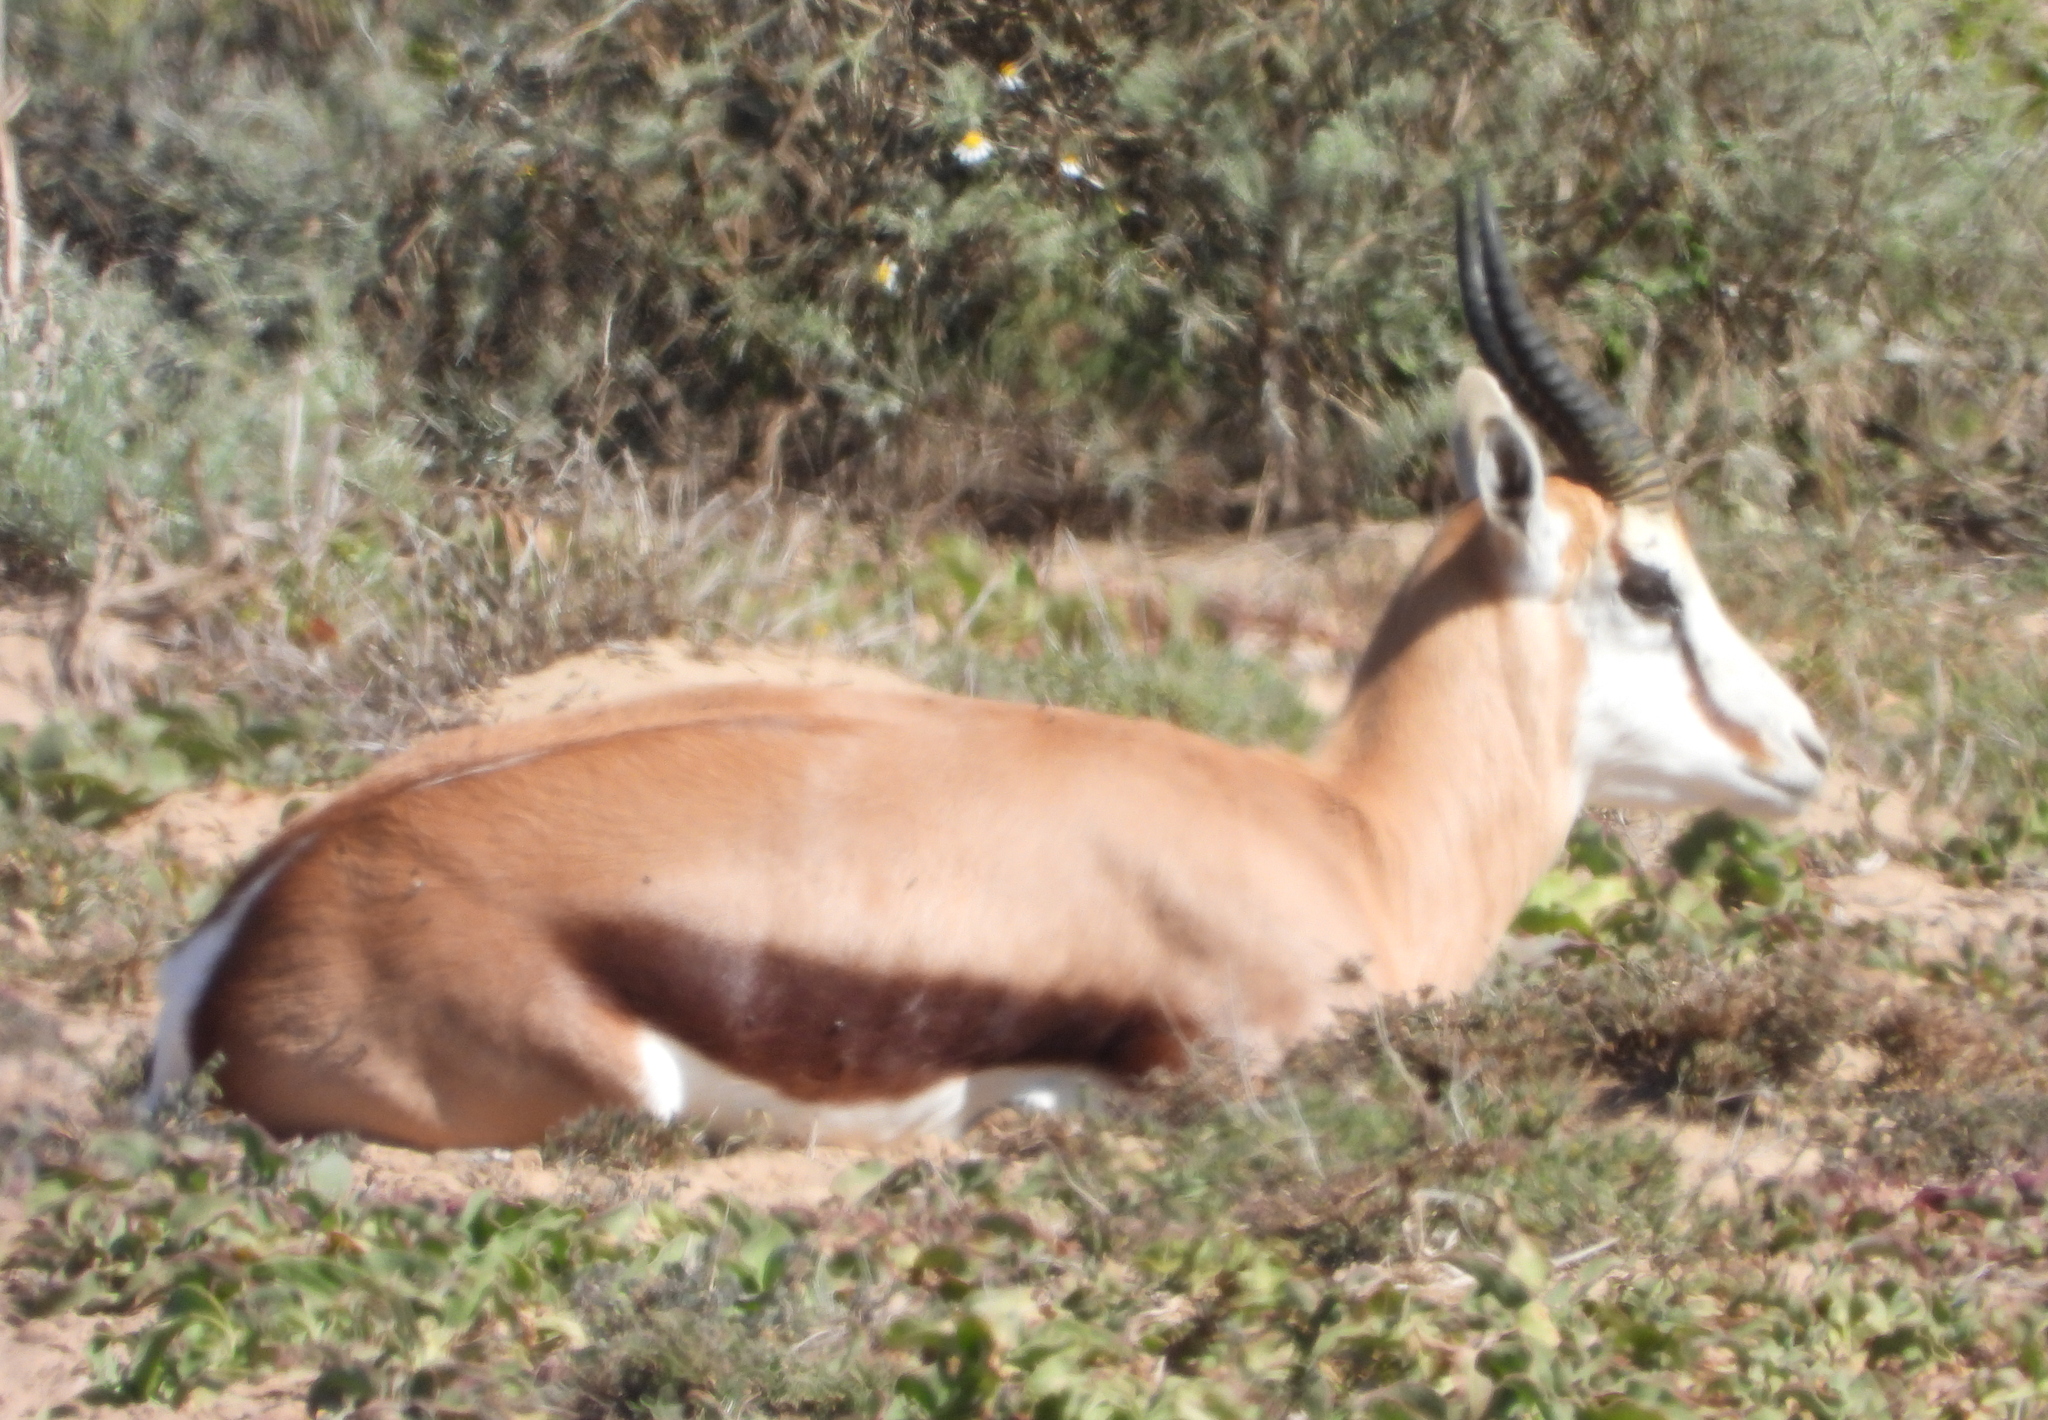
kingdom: Animalia
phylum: Chordata
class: Mammalia
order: Artiodactyla
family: Bovidae
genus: Antidorcas
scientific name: Antidorcas marsupialis
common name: Springbok
